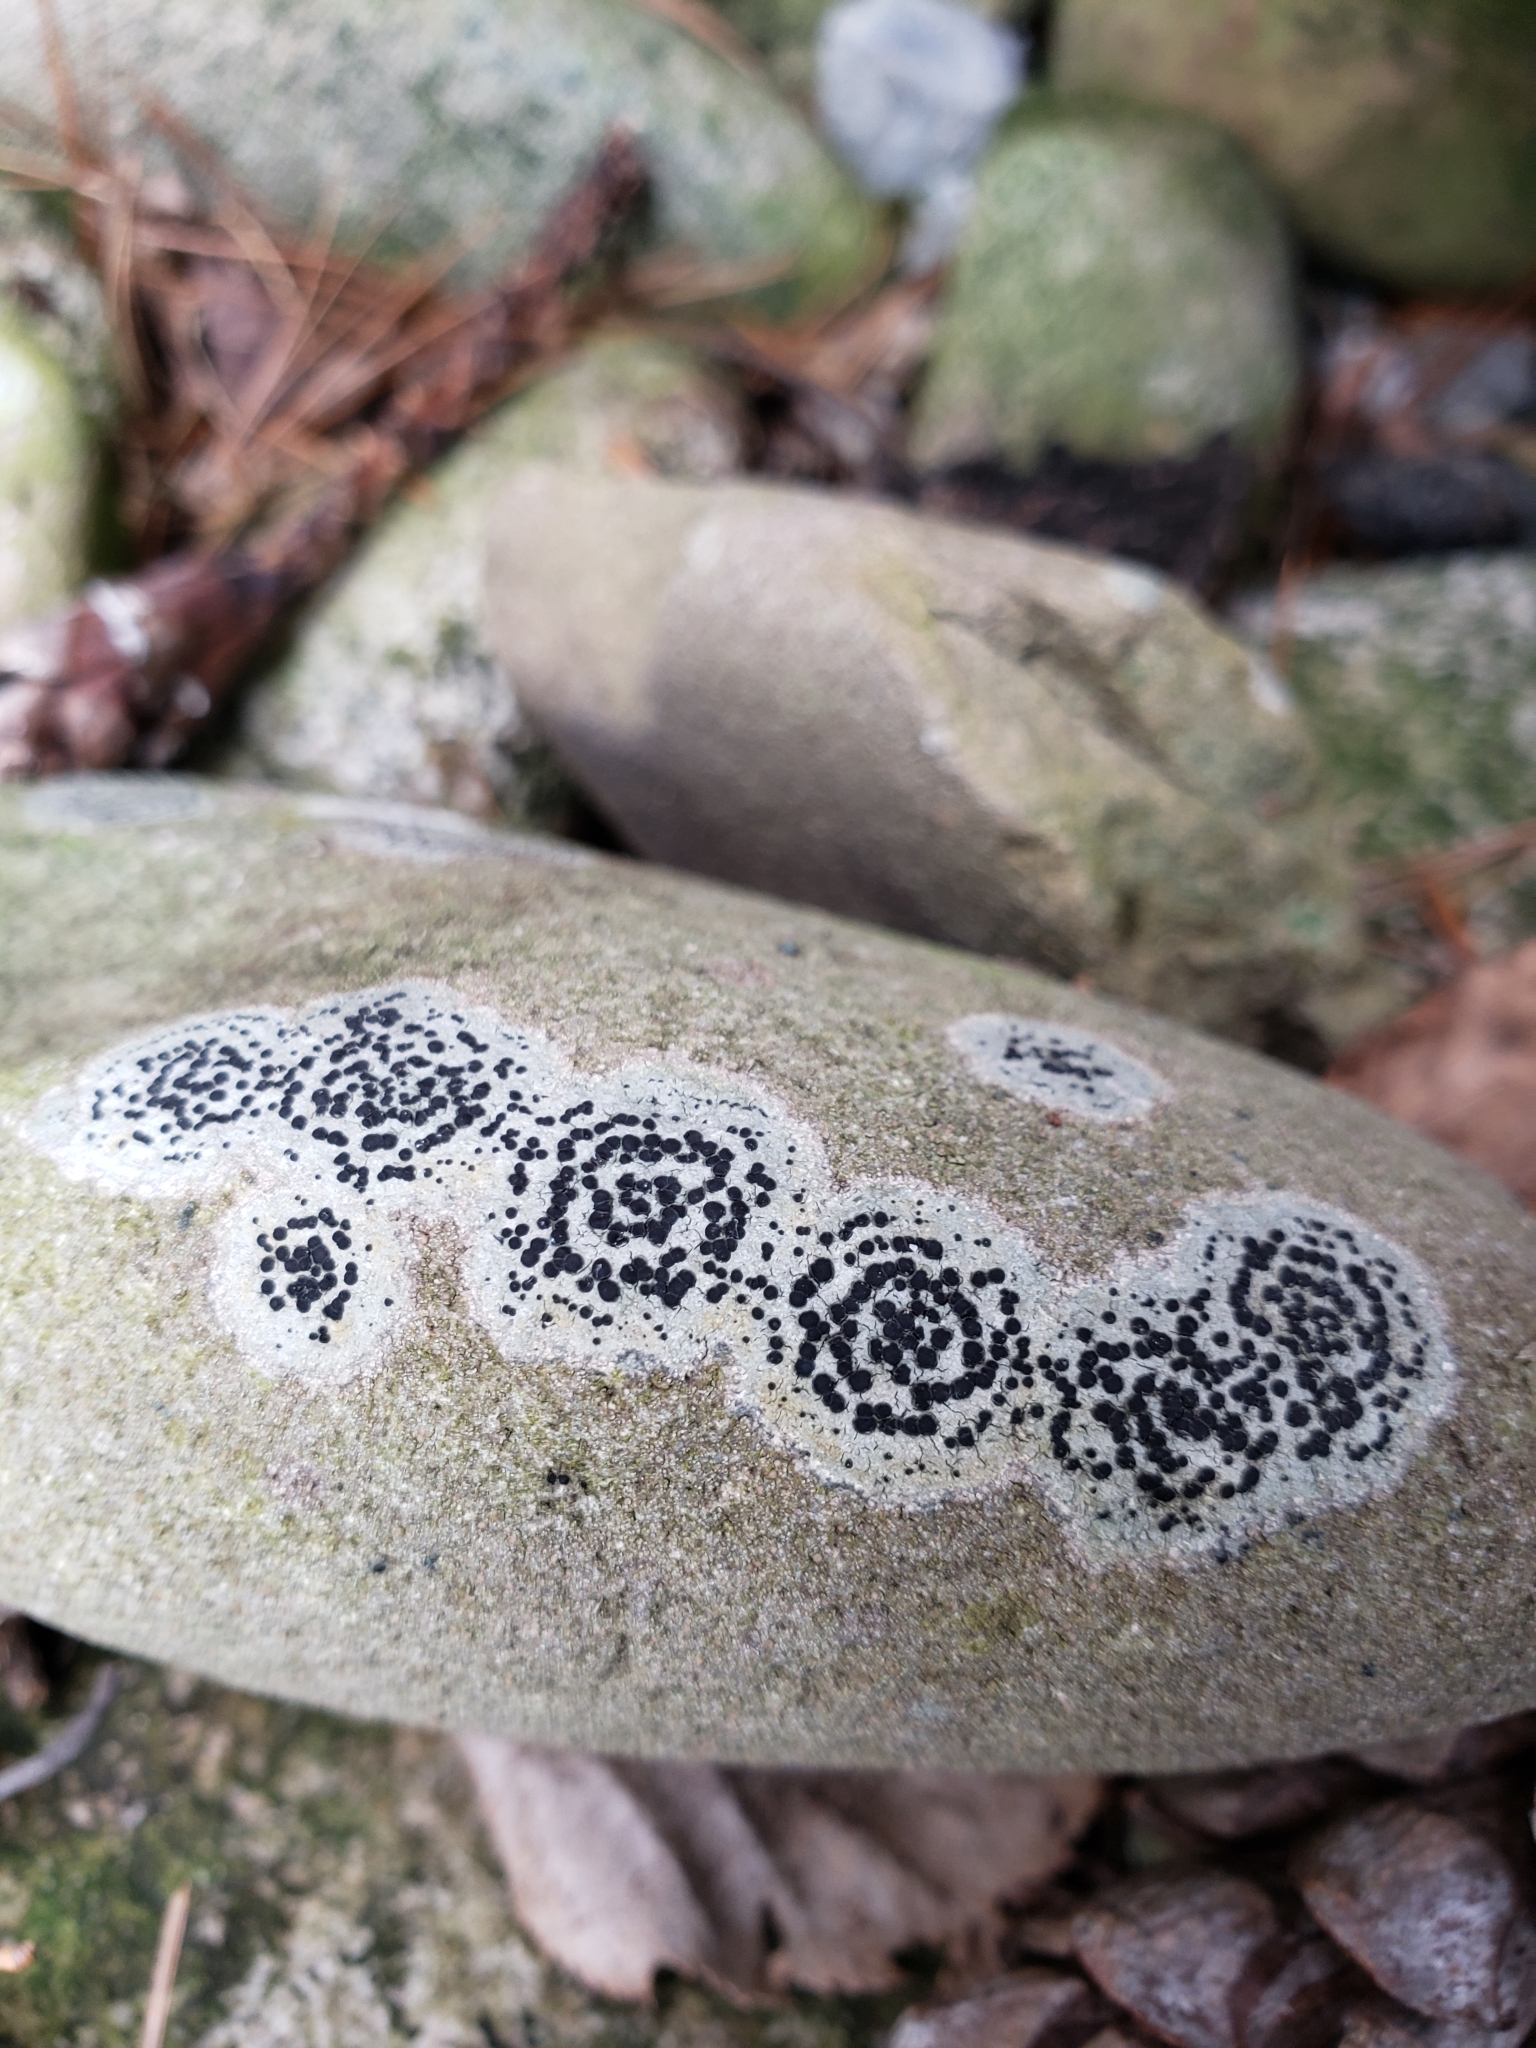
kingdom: Fungi
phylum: Ascomycota
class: Lecanoromycetes
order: Lecideales
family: Lecideaceae
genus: Porpidia
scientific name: Porpidia crustulata
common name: Concentric boulder lichen
